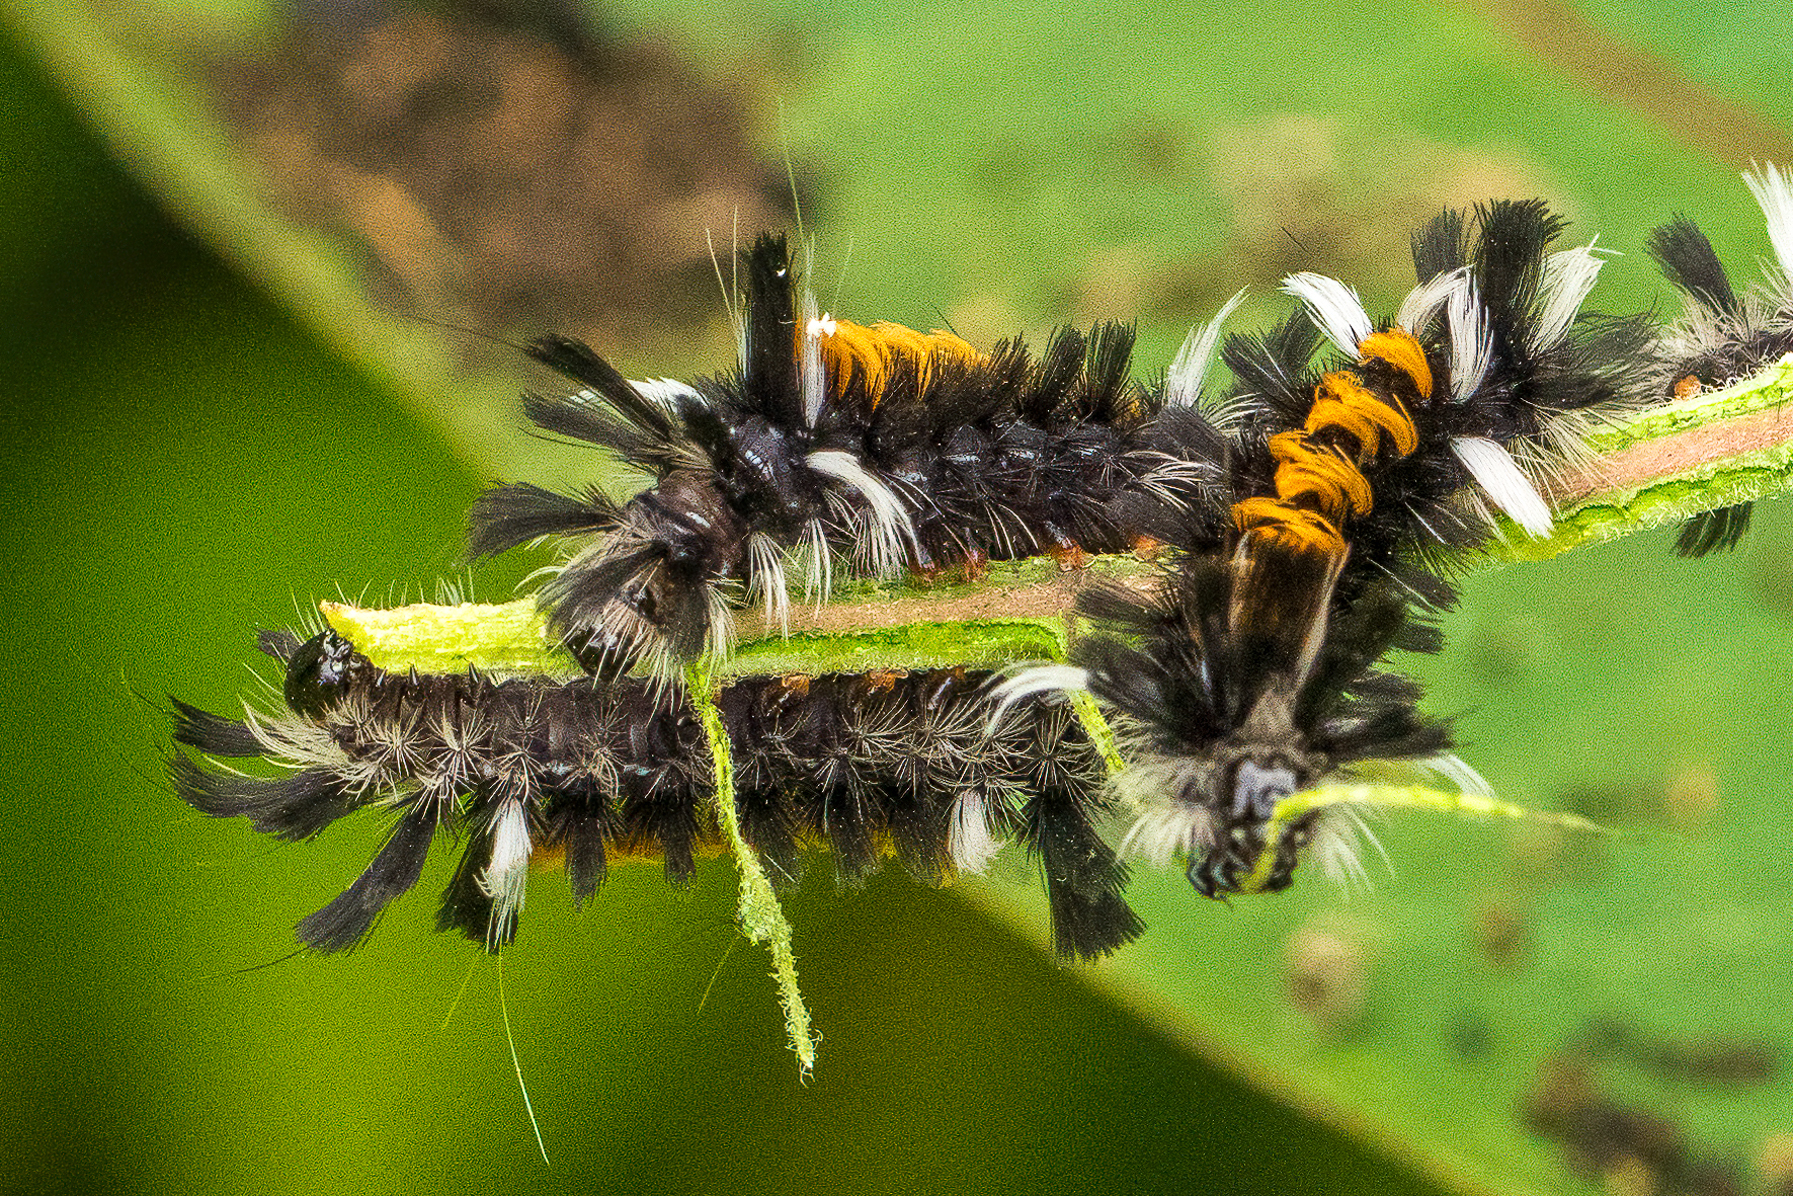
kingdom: Animalia
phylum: Arthropoda
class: Insecta
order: Lepidoptera
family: Erebidae
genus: Euchaetes
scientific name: Euchaetes egle
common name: Milkweed tussock moth
